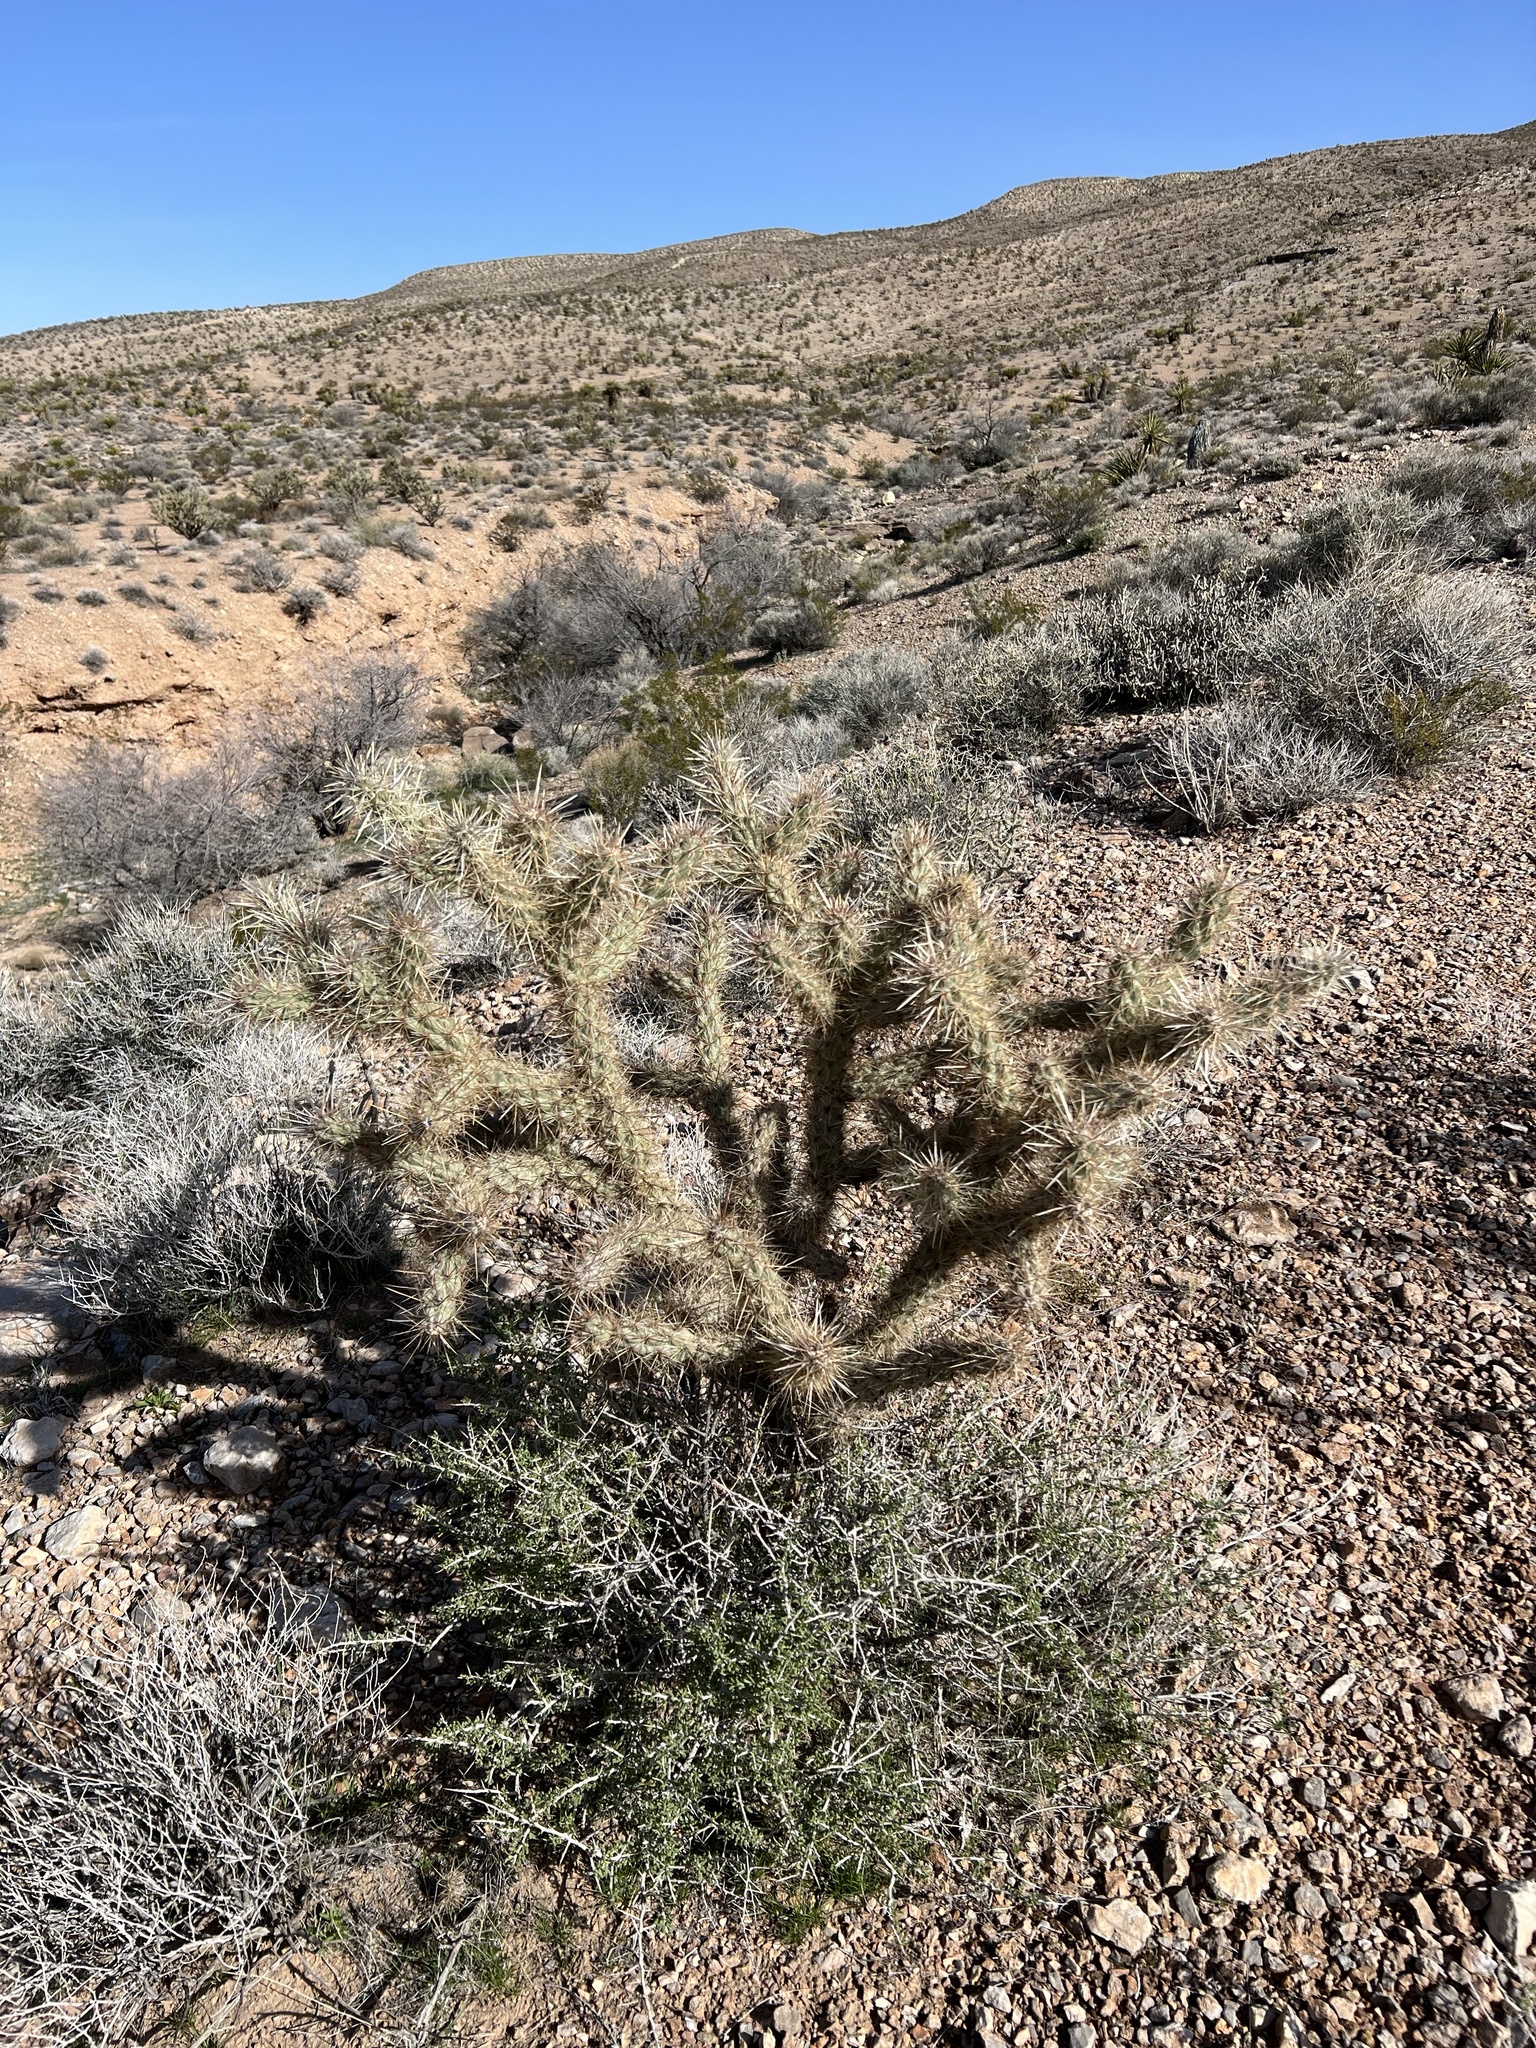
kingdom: Plantae
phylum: Tracheophyta
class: Magnoliopsida
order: Caryophyllales
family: Cactaceae
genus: Cylindropuntia
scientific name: Cylindropuntia acanthocarpa
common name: Buckhorn cholla
